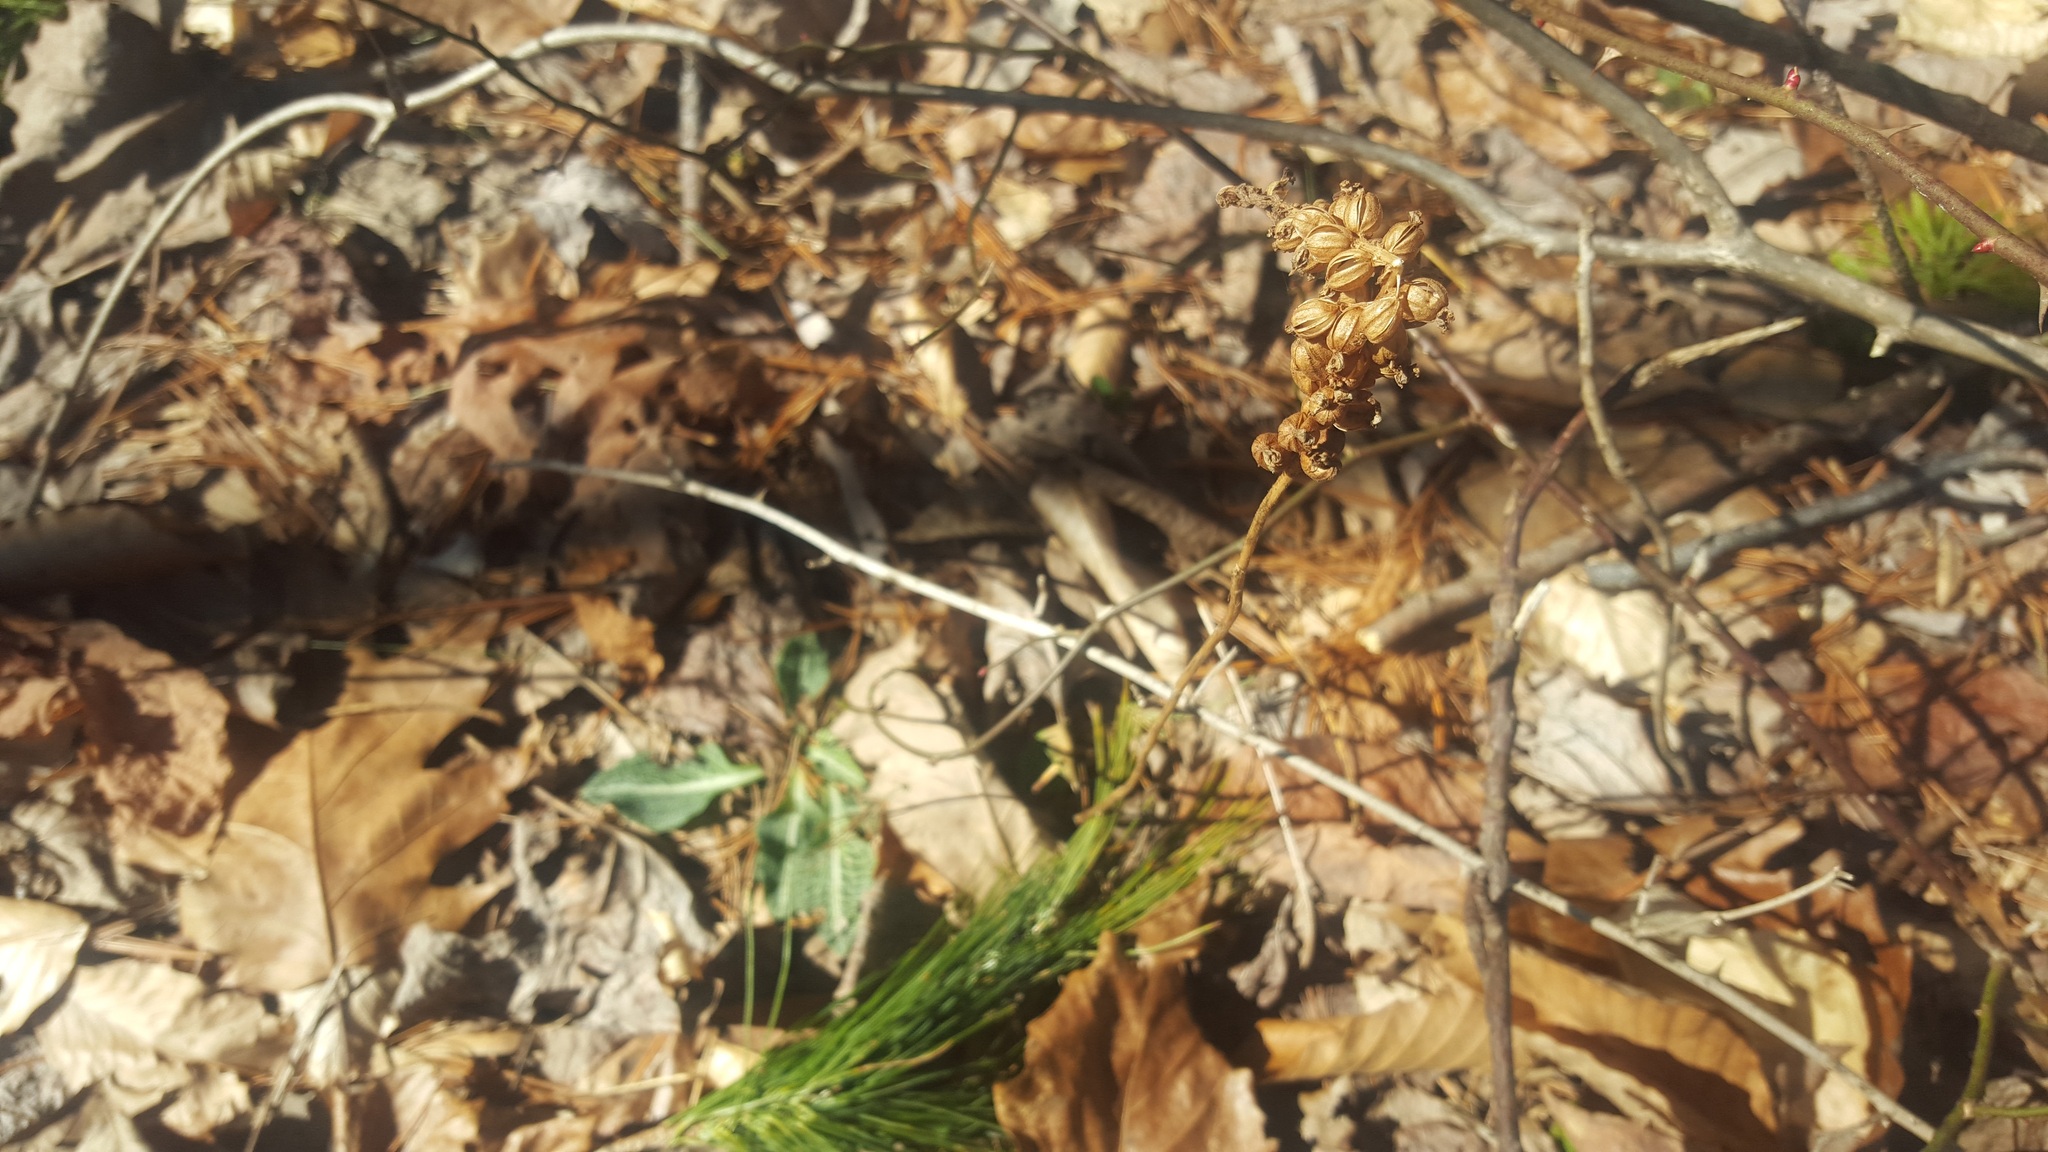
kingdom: Plantae
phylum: Tracheophyta
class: Liliopsida
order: Asparagales
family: Orchidaceae
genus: Goodyera
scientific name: Goodyera pubescens
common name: Downy rattlesnake-plantain
